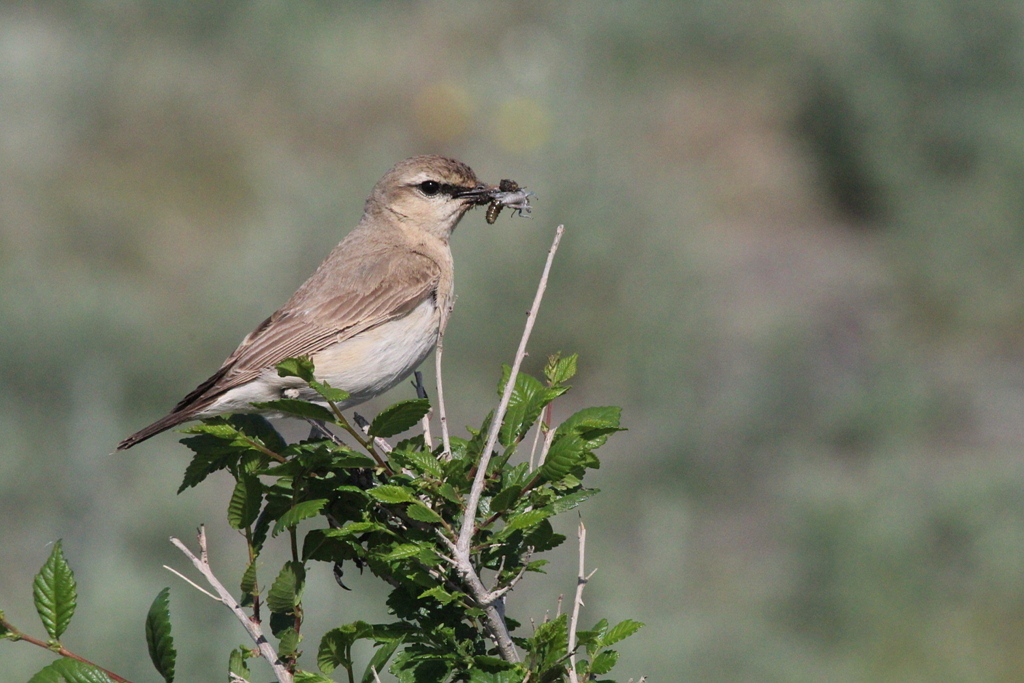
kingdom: Animalia
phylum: Chordata
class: Aves
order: Passeriformes
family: Muscicapidae
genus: Oenanthe
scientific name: Oenanthe isabellina
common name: Isabelline wheatear
